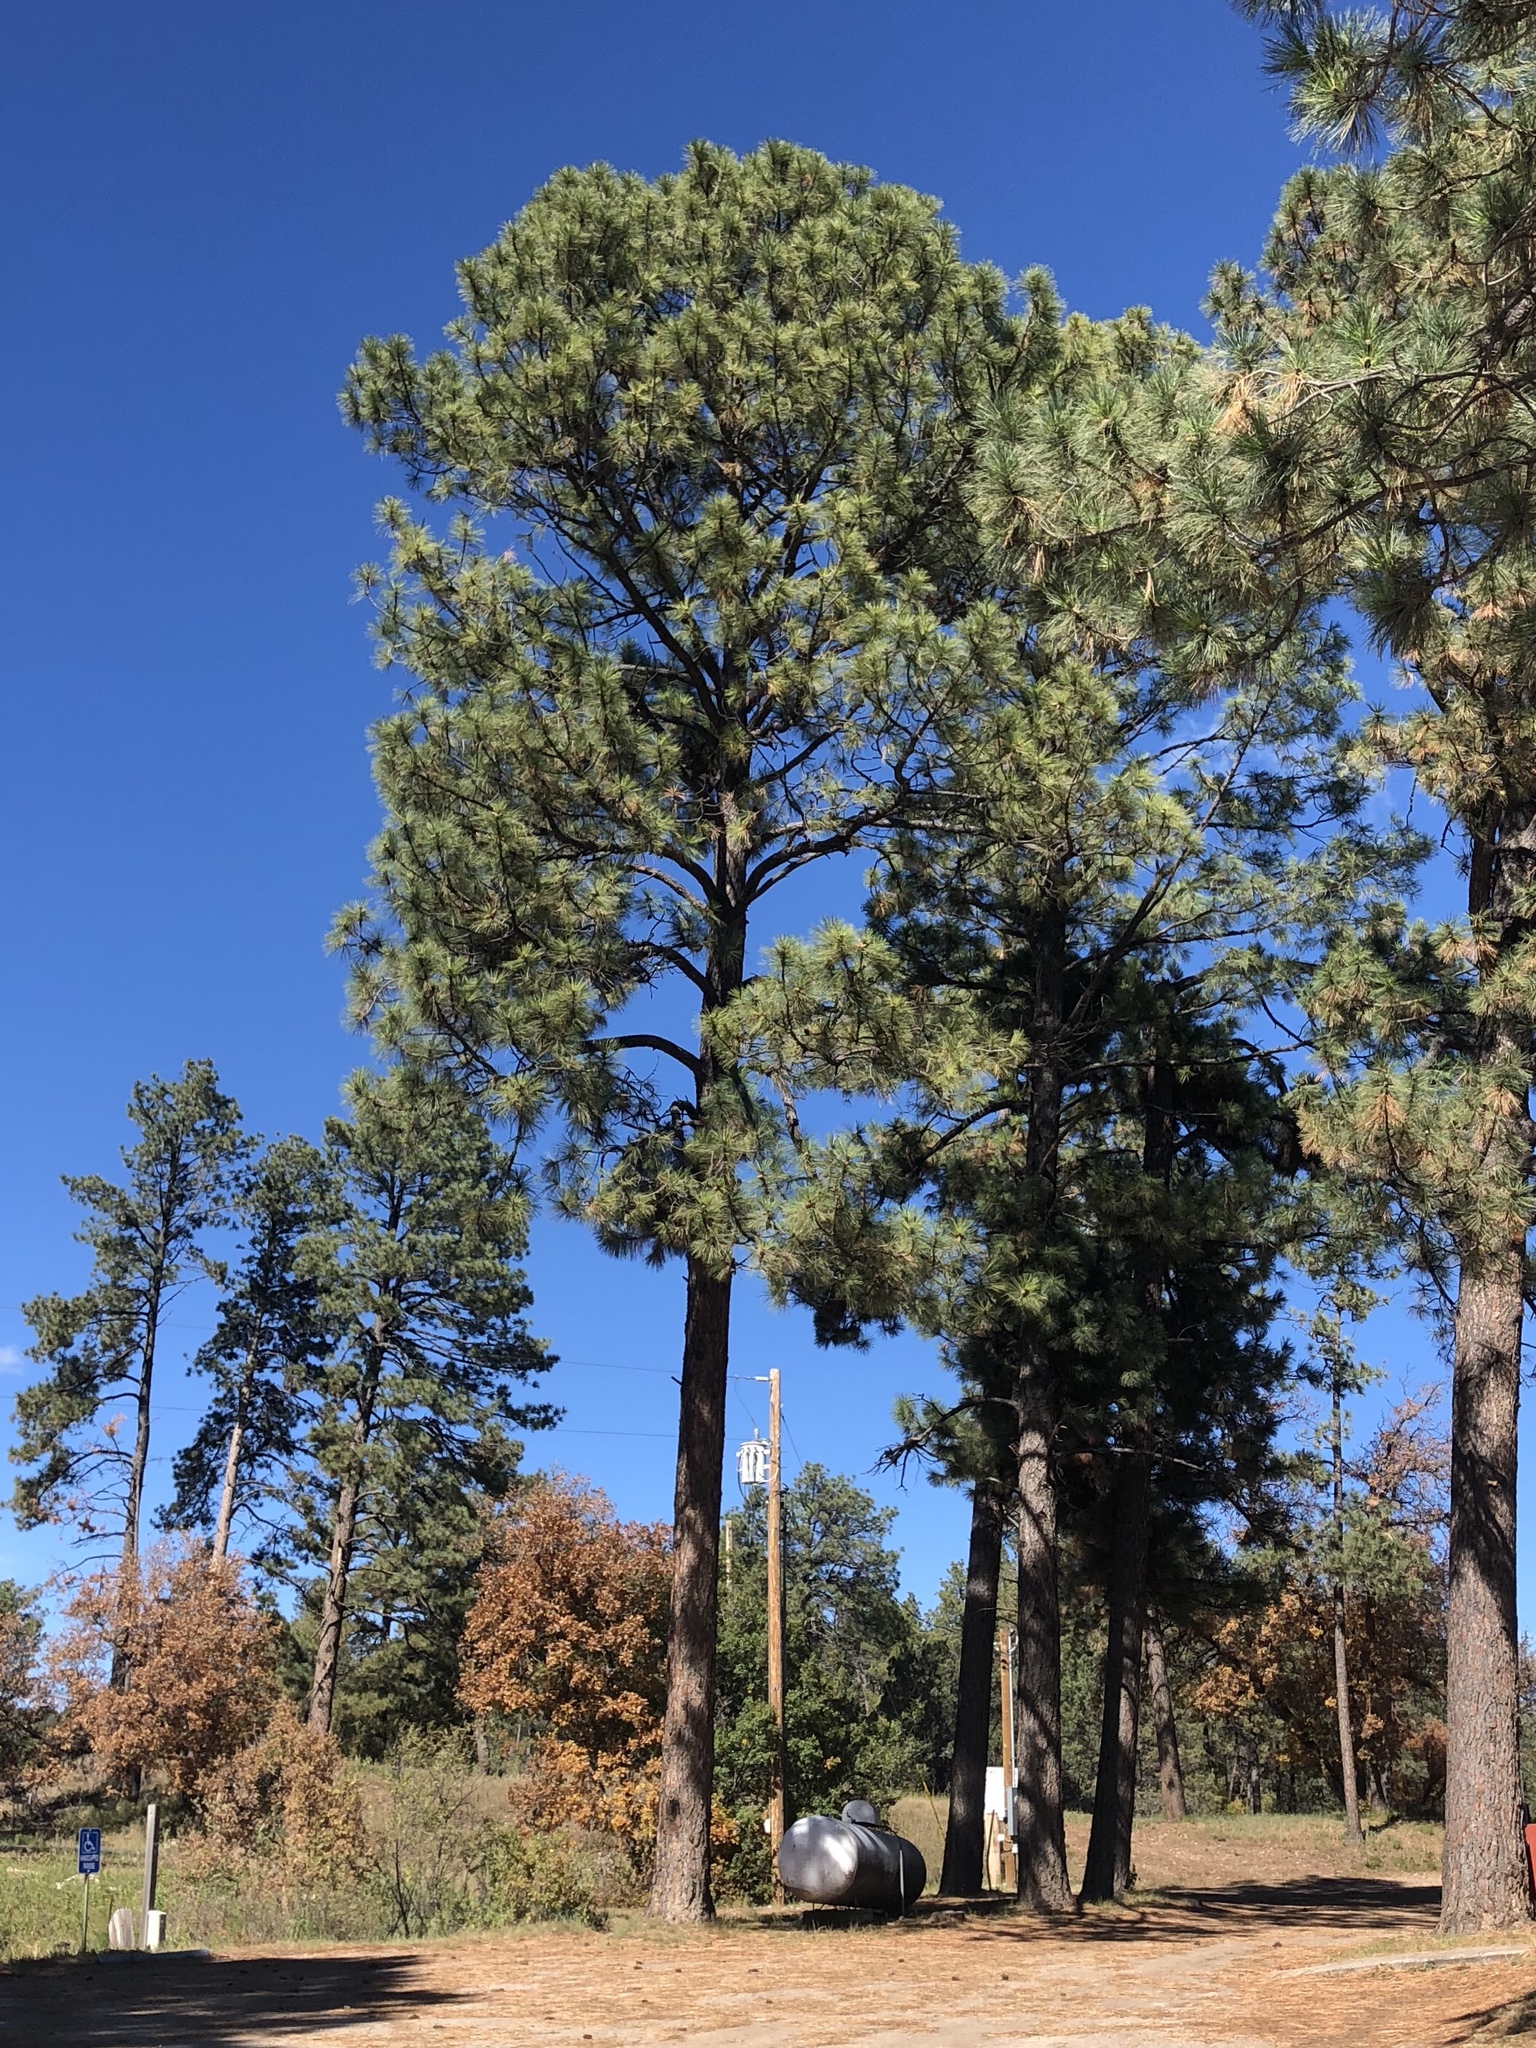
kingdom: Plantae
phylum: Tracheophyta
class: Pinopsida
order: Pinales
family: Pinaceae
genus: Pinus
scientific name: Pinus ponderosa
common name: Western yellow-pine
